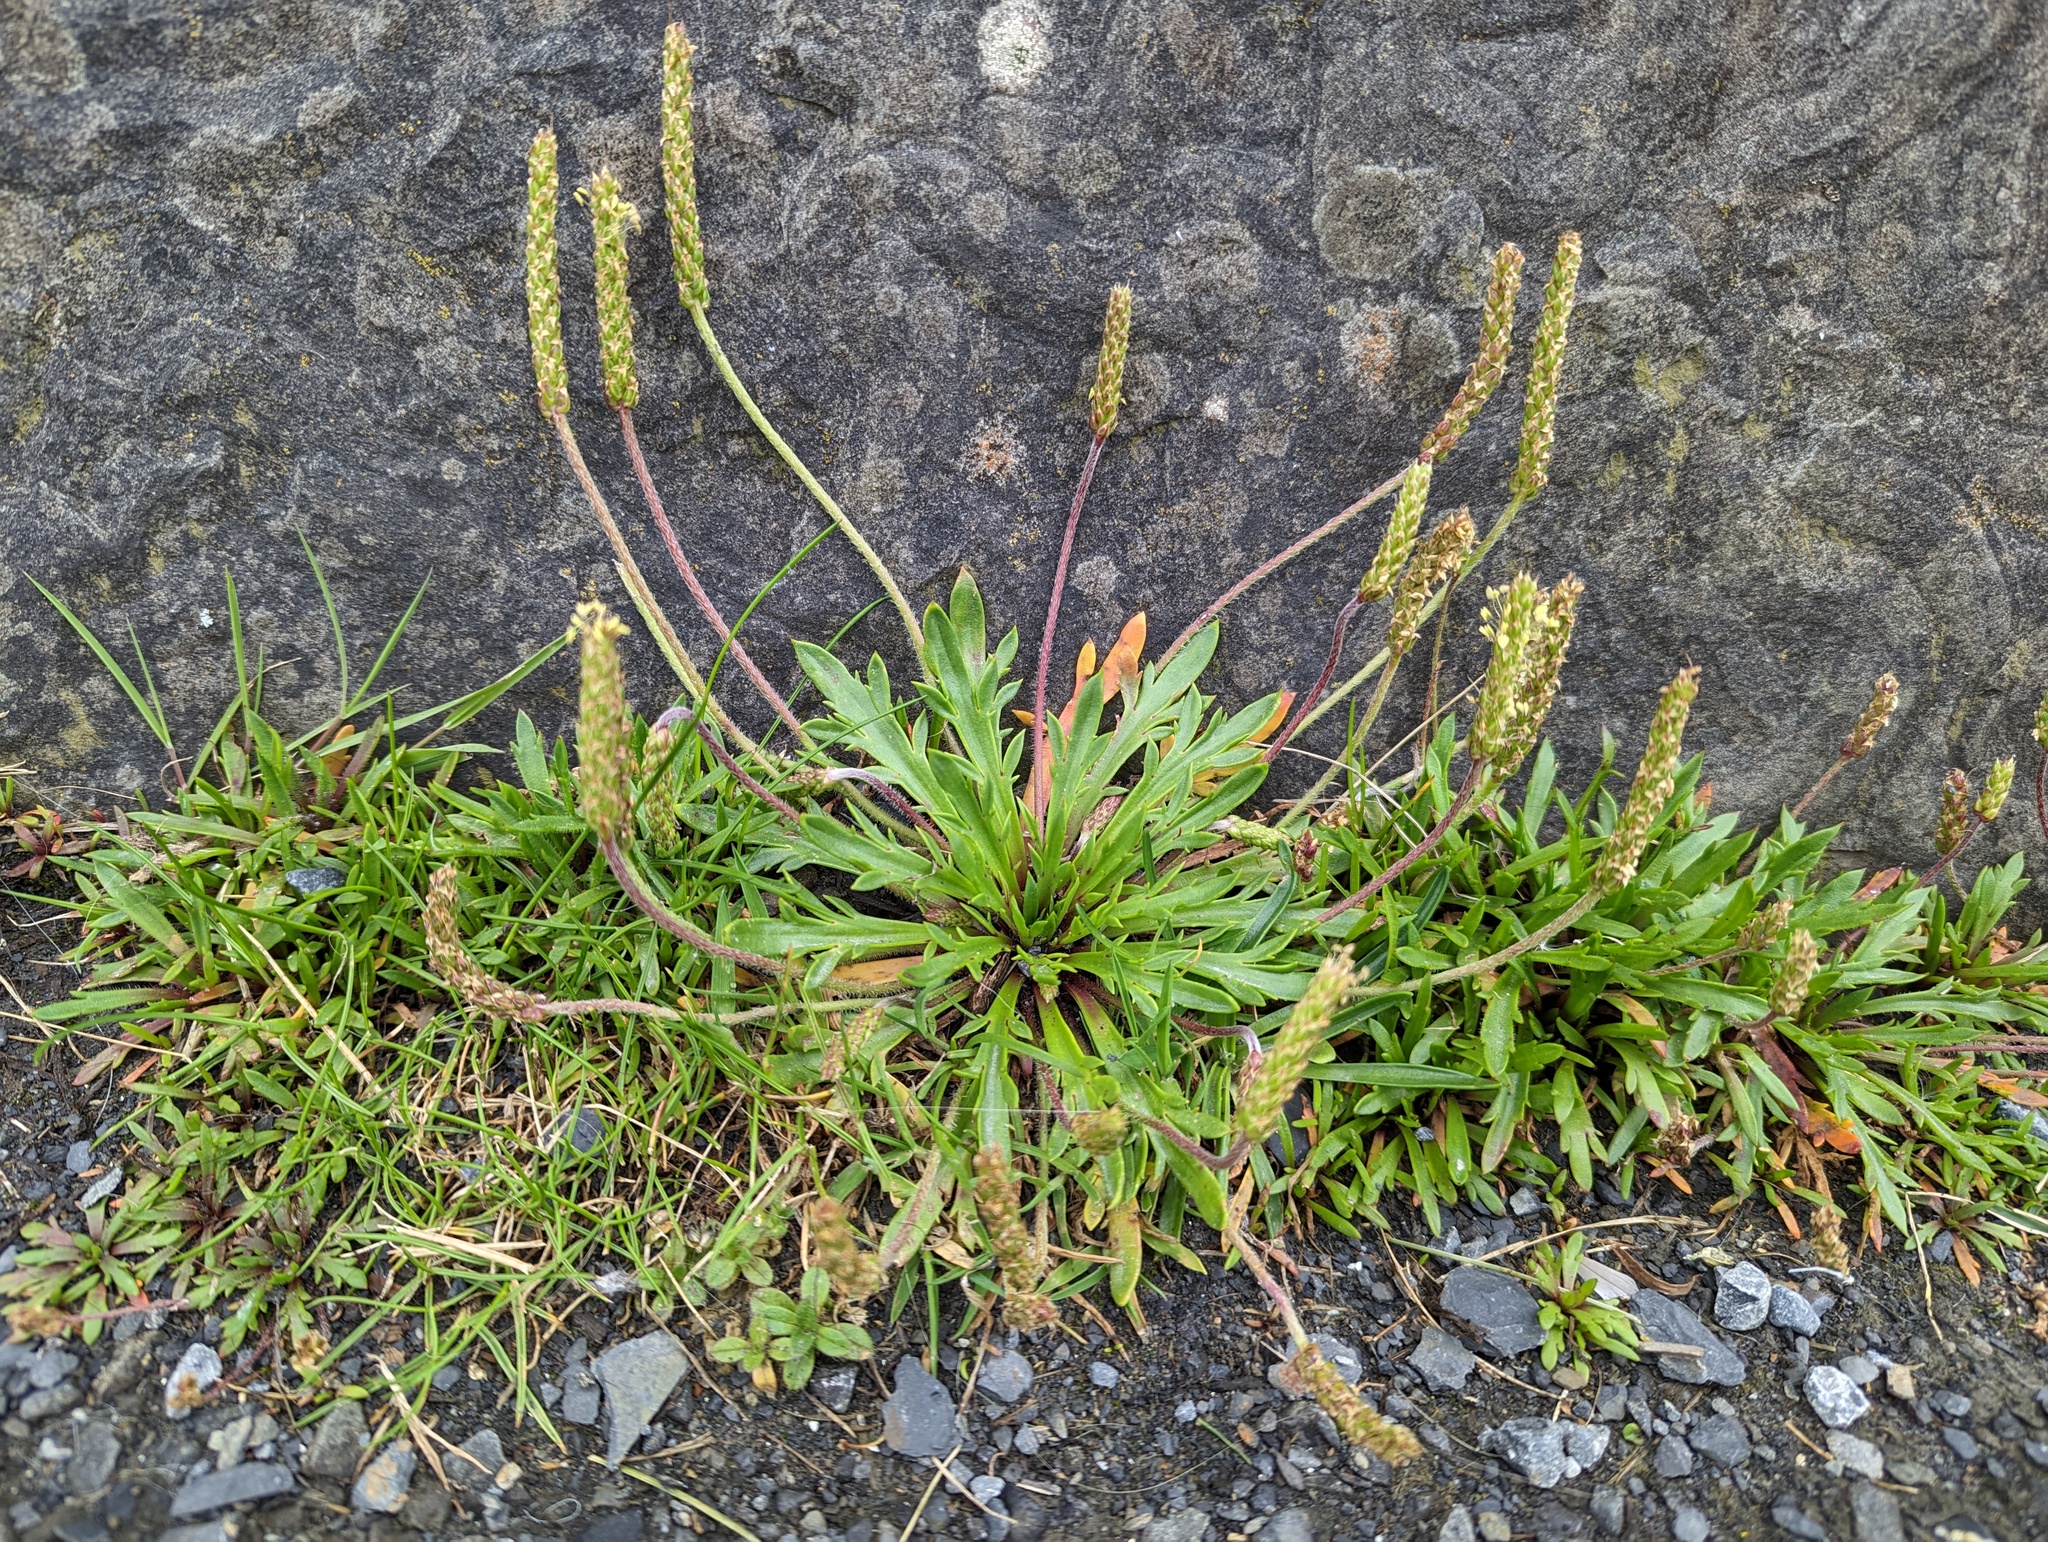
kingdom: Plantae
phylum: Tracheophyta
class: Magnoliopsida
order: Lamiales
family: Plantaginaceae
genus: Plantago
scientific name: Plantago coronopus
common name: Buck's-horn plantain
